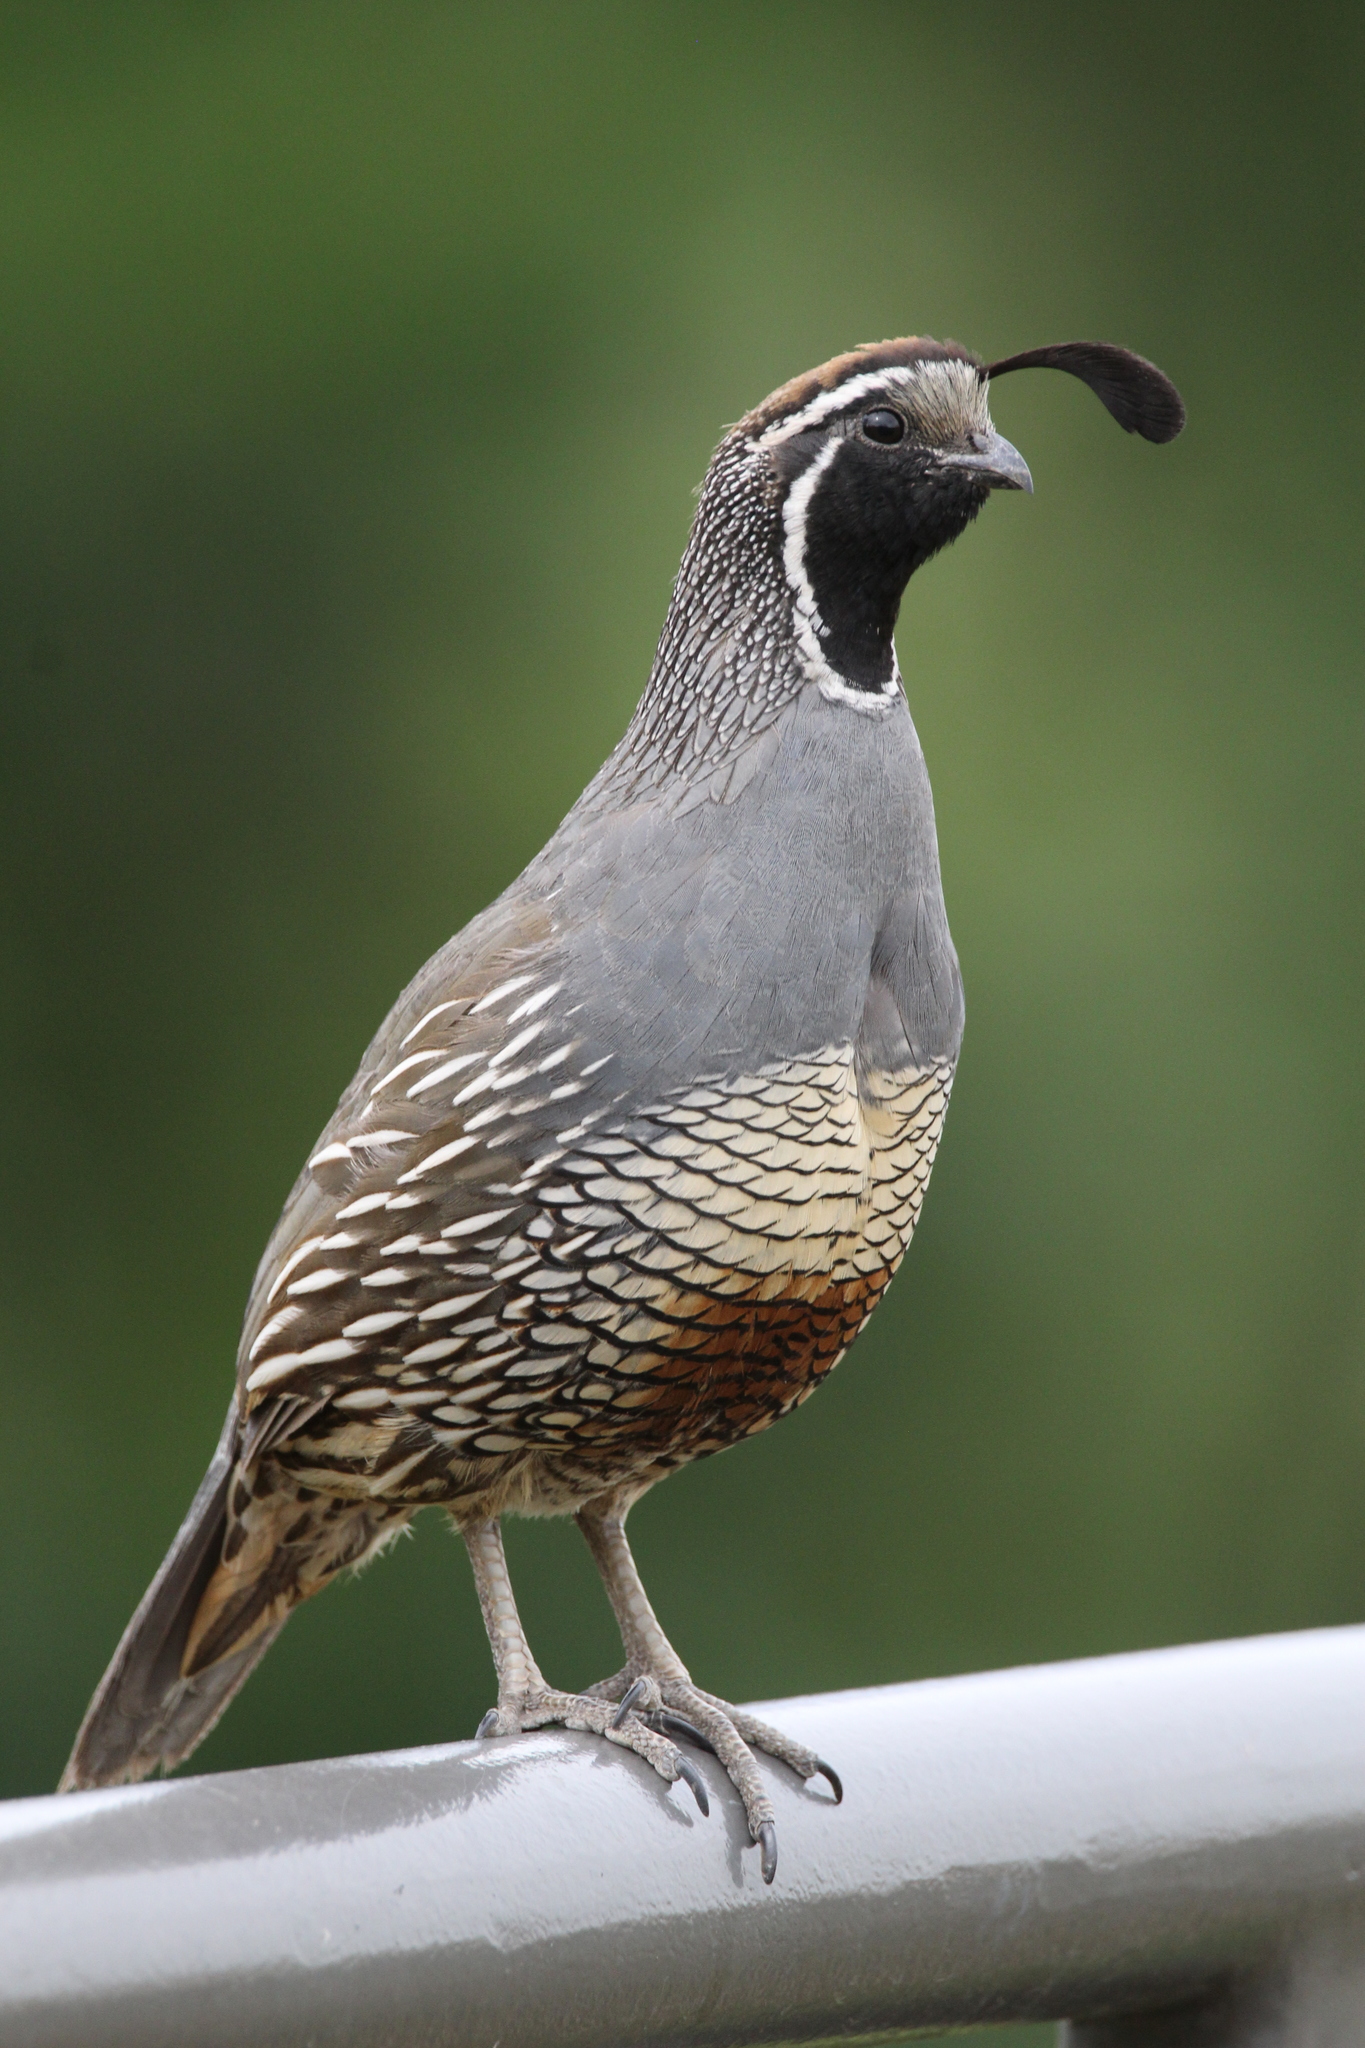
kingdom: Animalia
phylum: Chordata
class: Aves
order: Galliformes
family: Odontophoridae
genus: Callipepla
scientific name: Callipepla californica
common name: California quail
